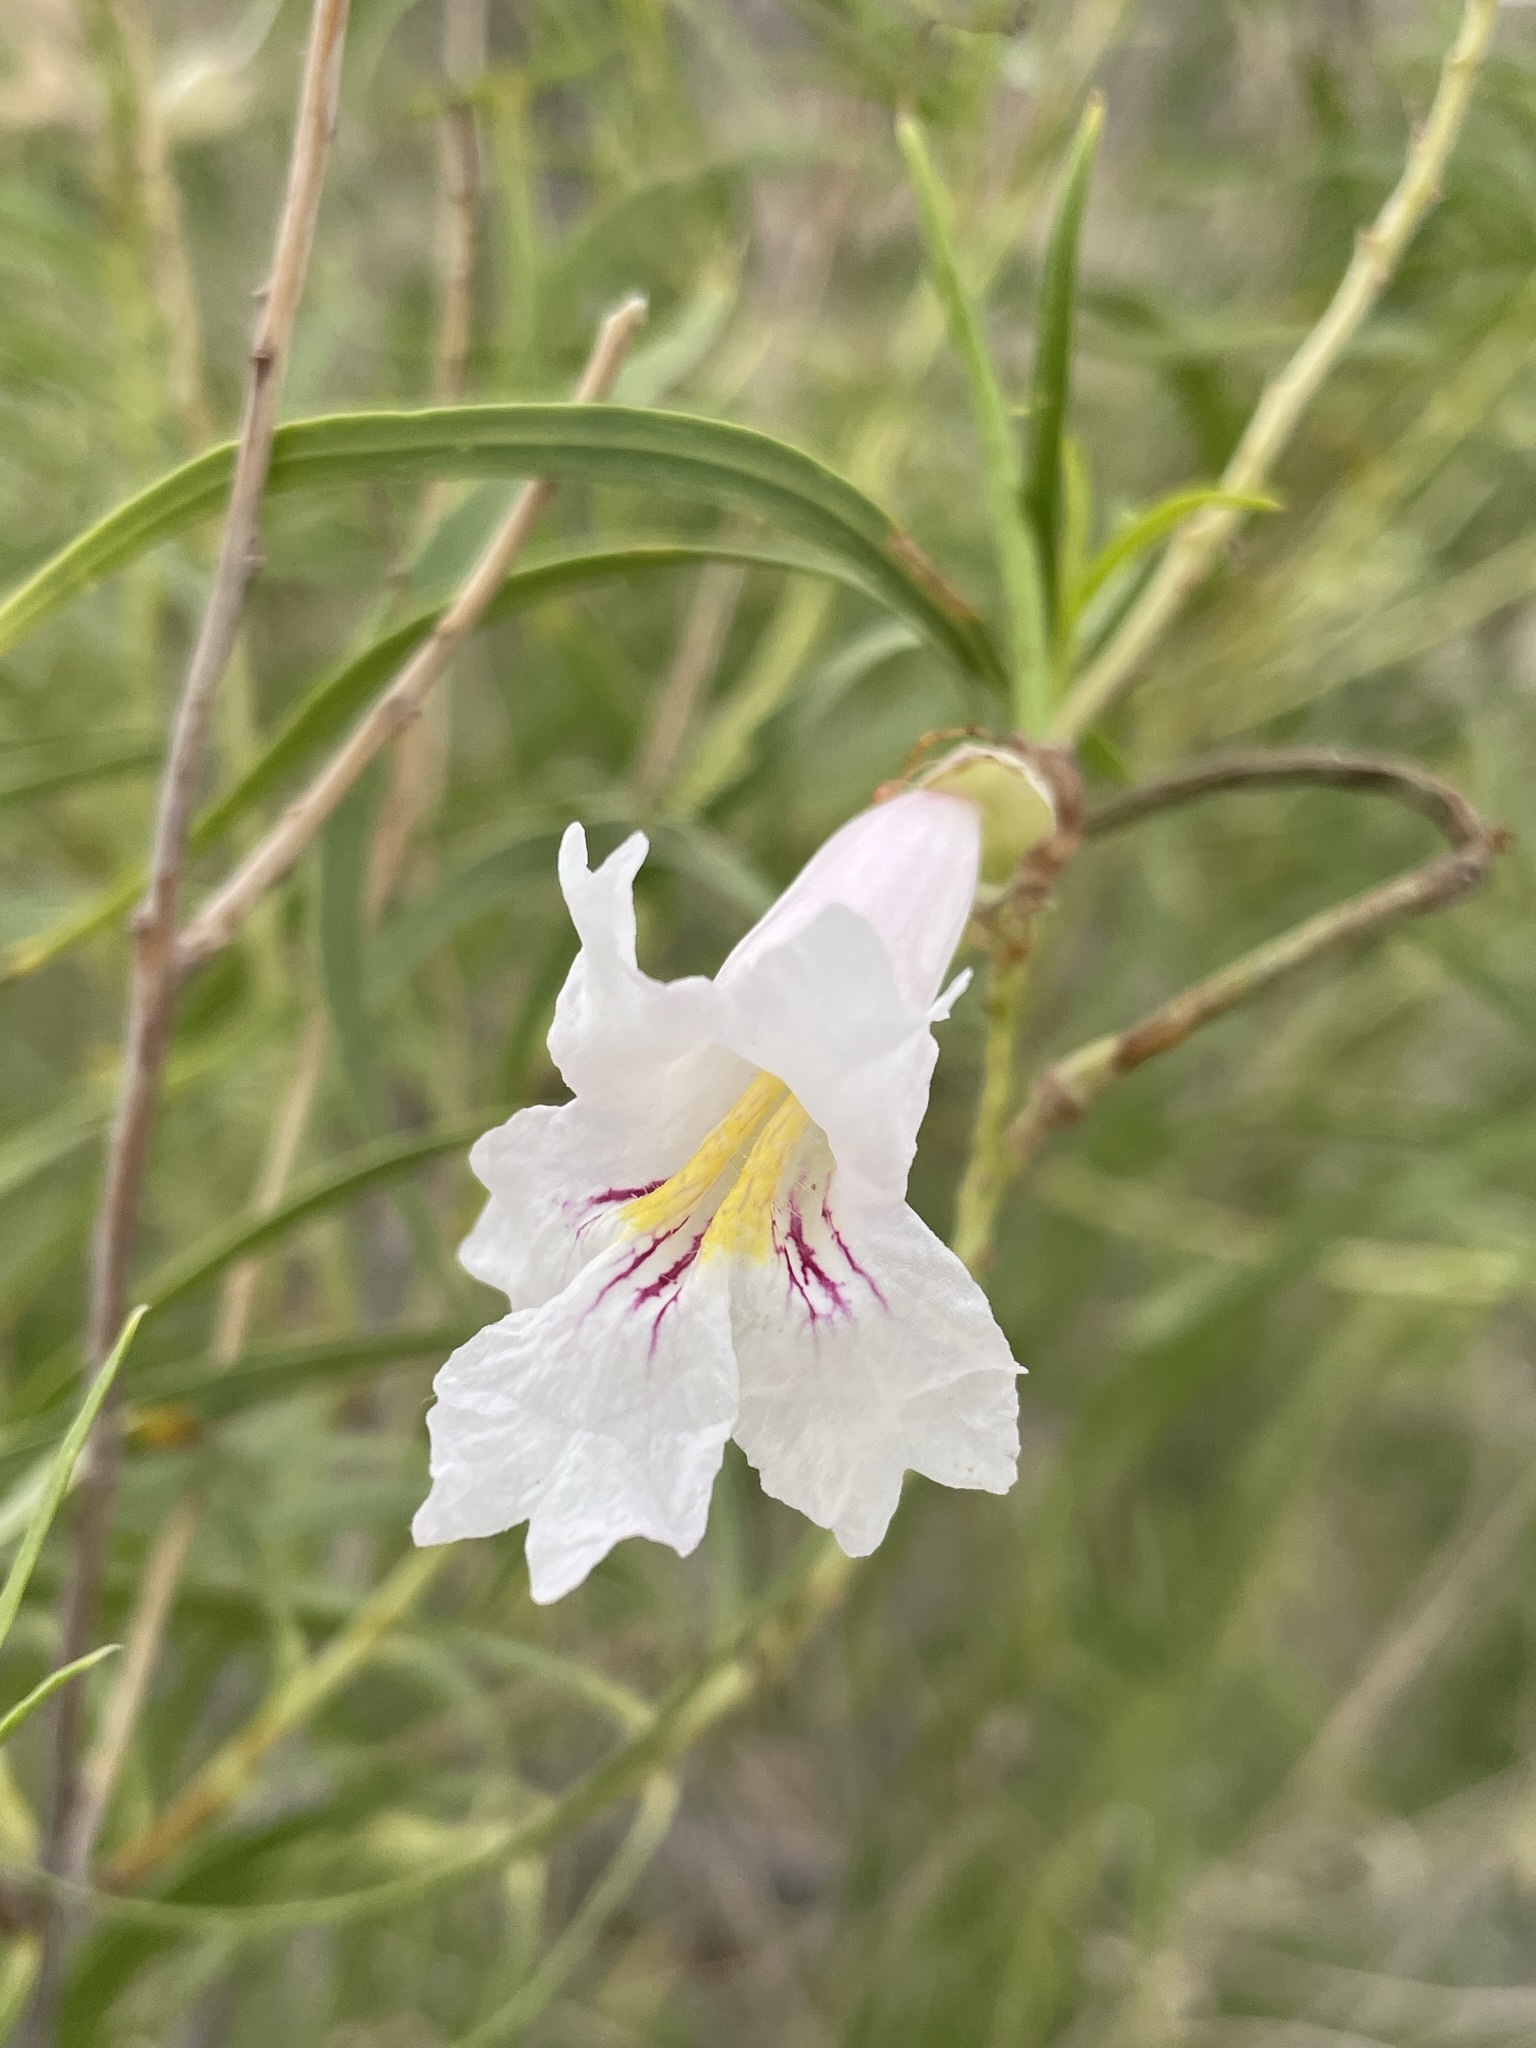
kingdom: Plantae
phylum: Tracheophyta
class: Magnoliopsida
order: Lamiales
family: Bignoniaceae
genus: Chilopsis
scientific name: Chilopsis linearis
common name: Desert-willow
